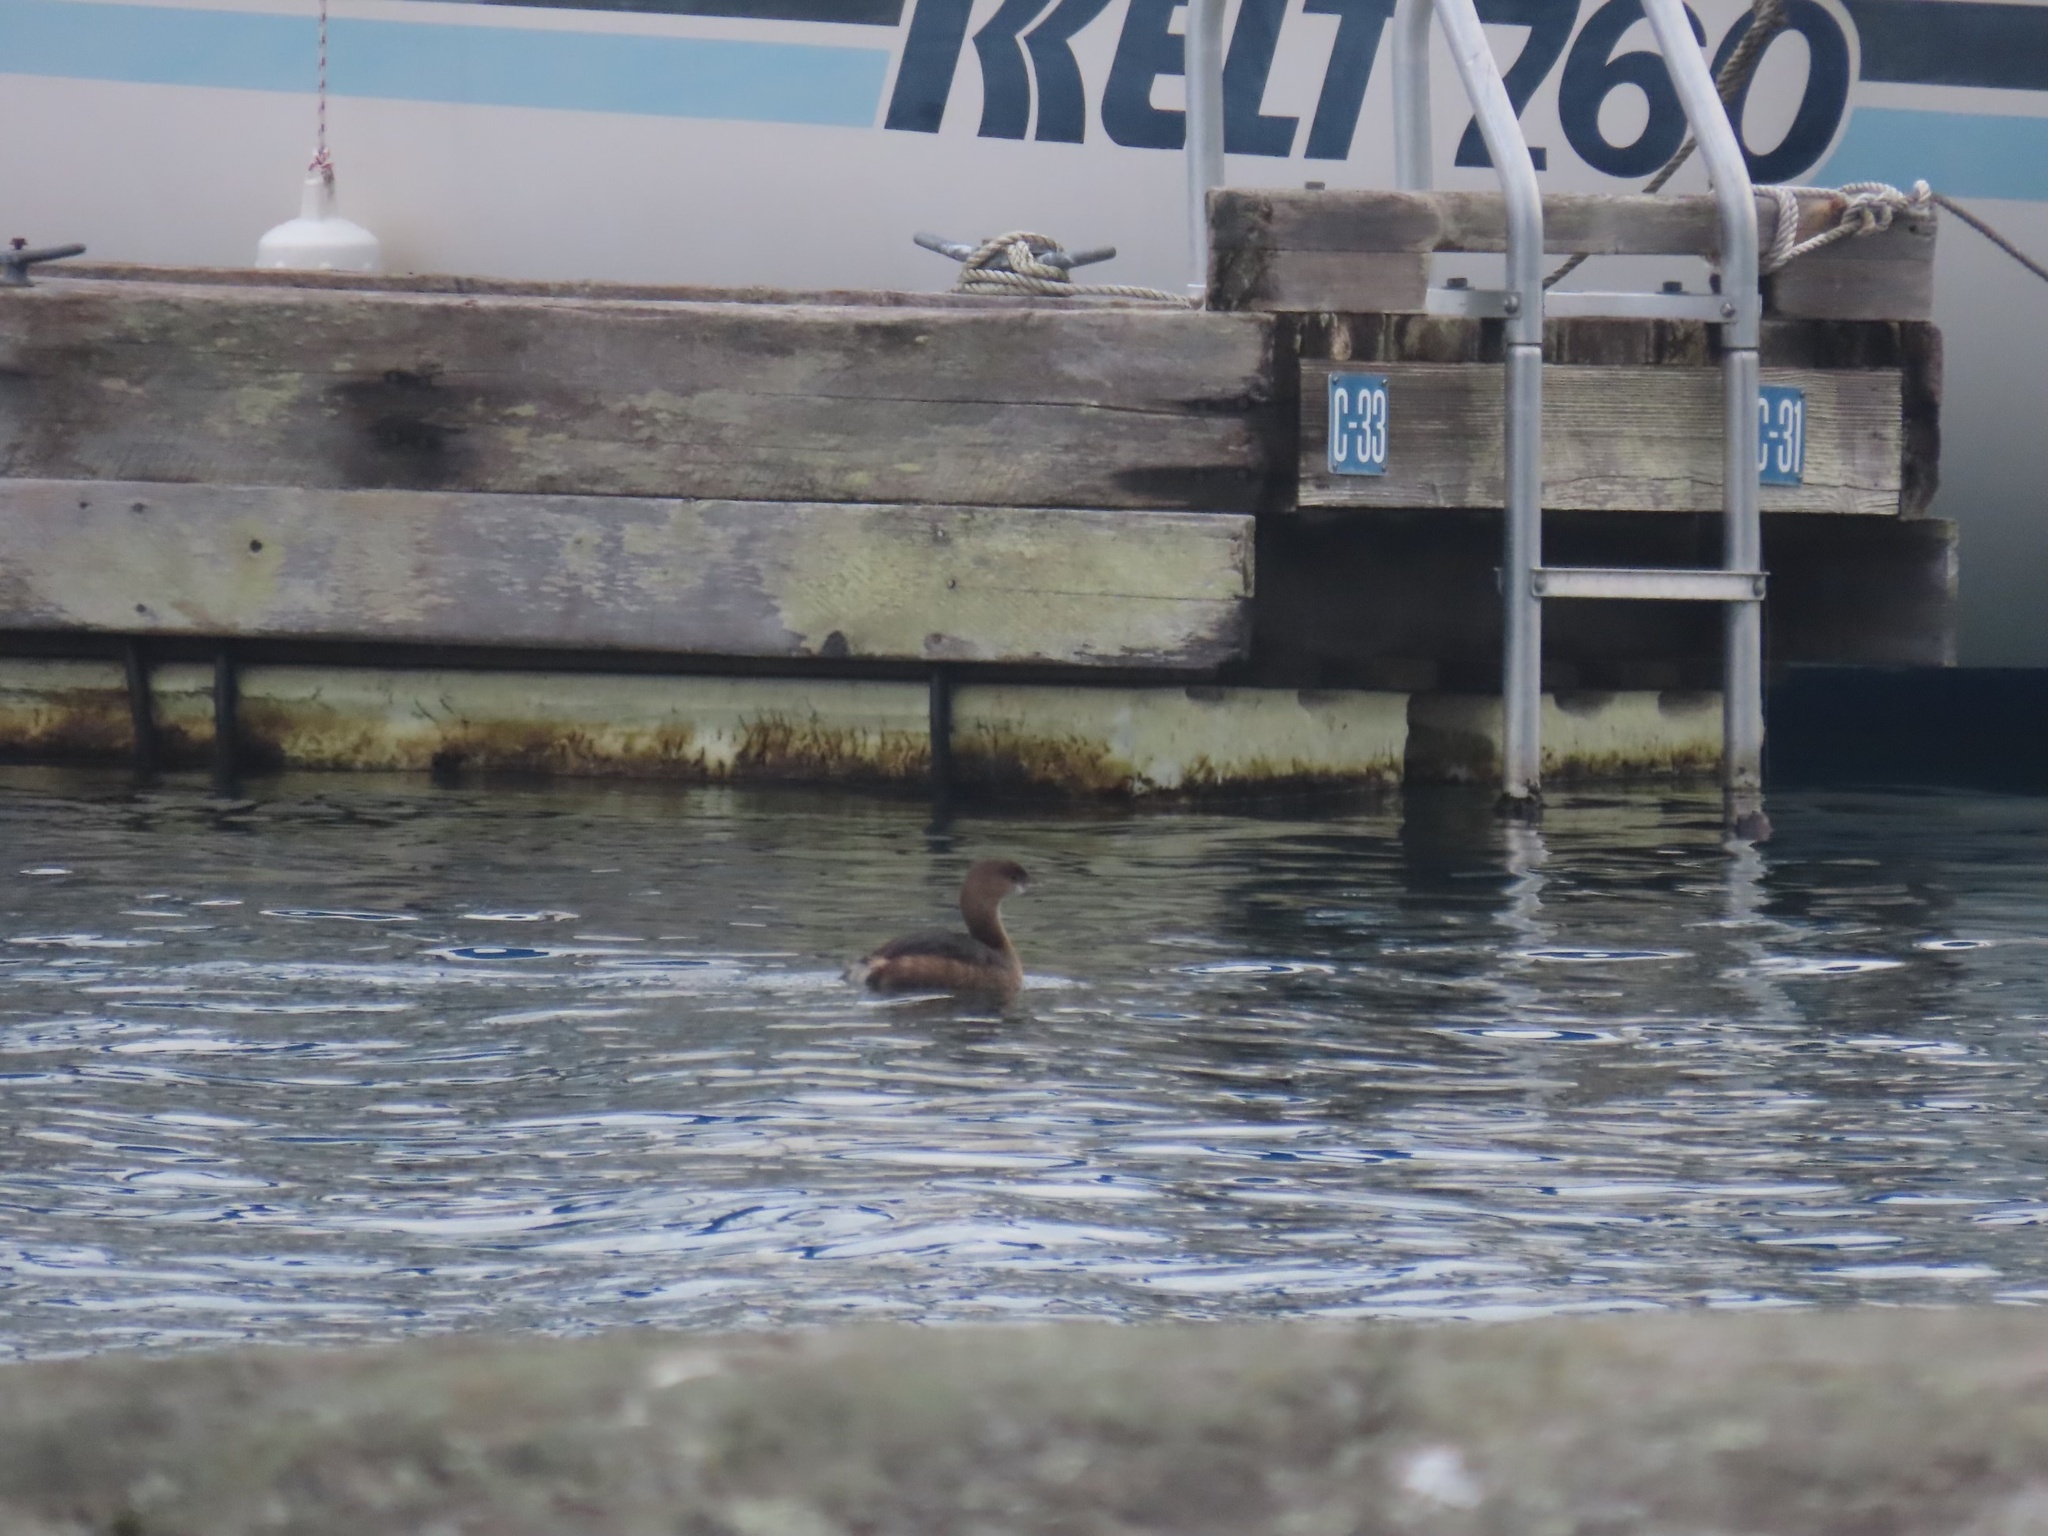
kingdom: Animalia
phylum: Chordata
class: Aves
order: Podicipediformes
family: Podicipedidae
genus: Podilymbus
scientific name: Podilymbus podiceps
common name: Pied-billed grebe
